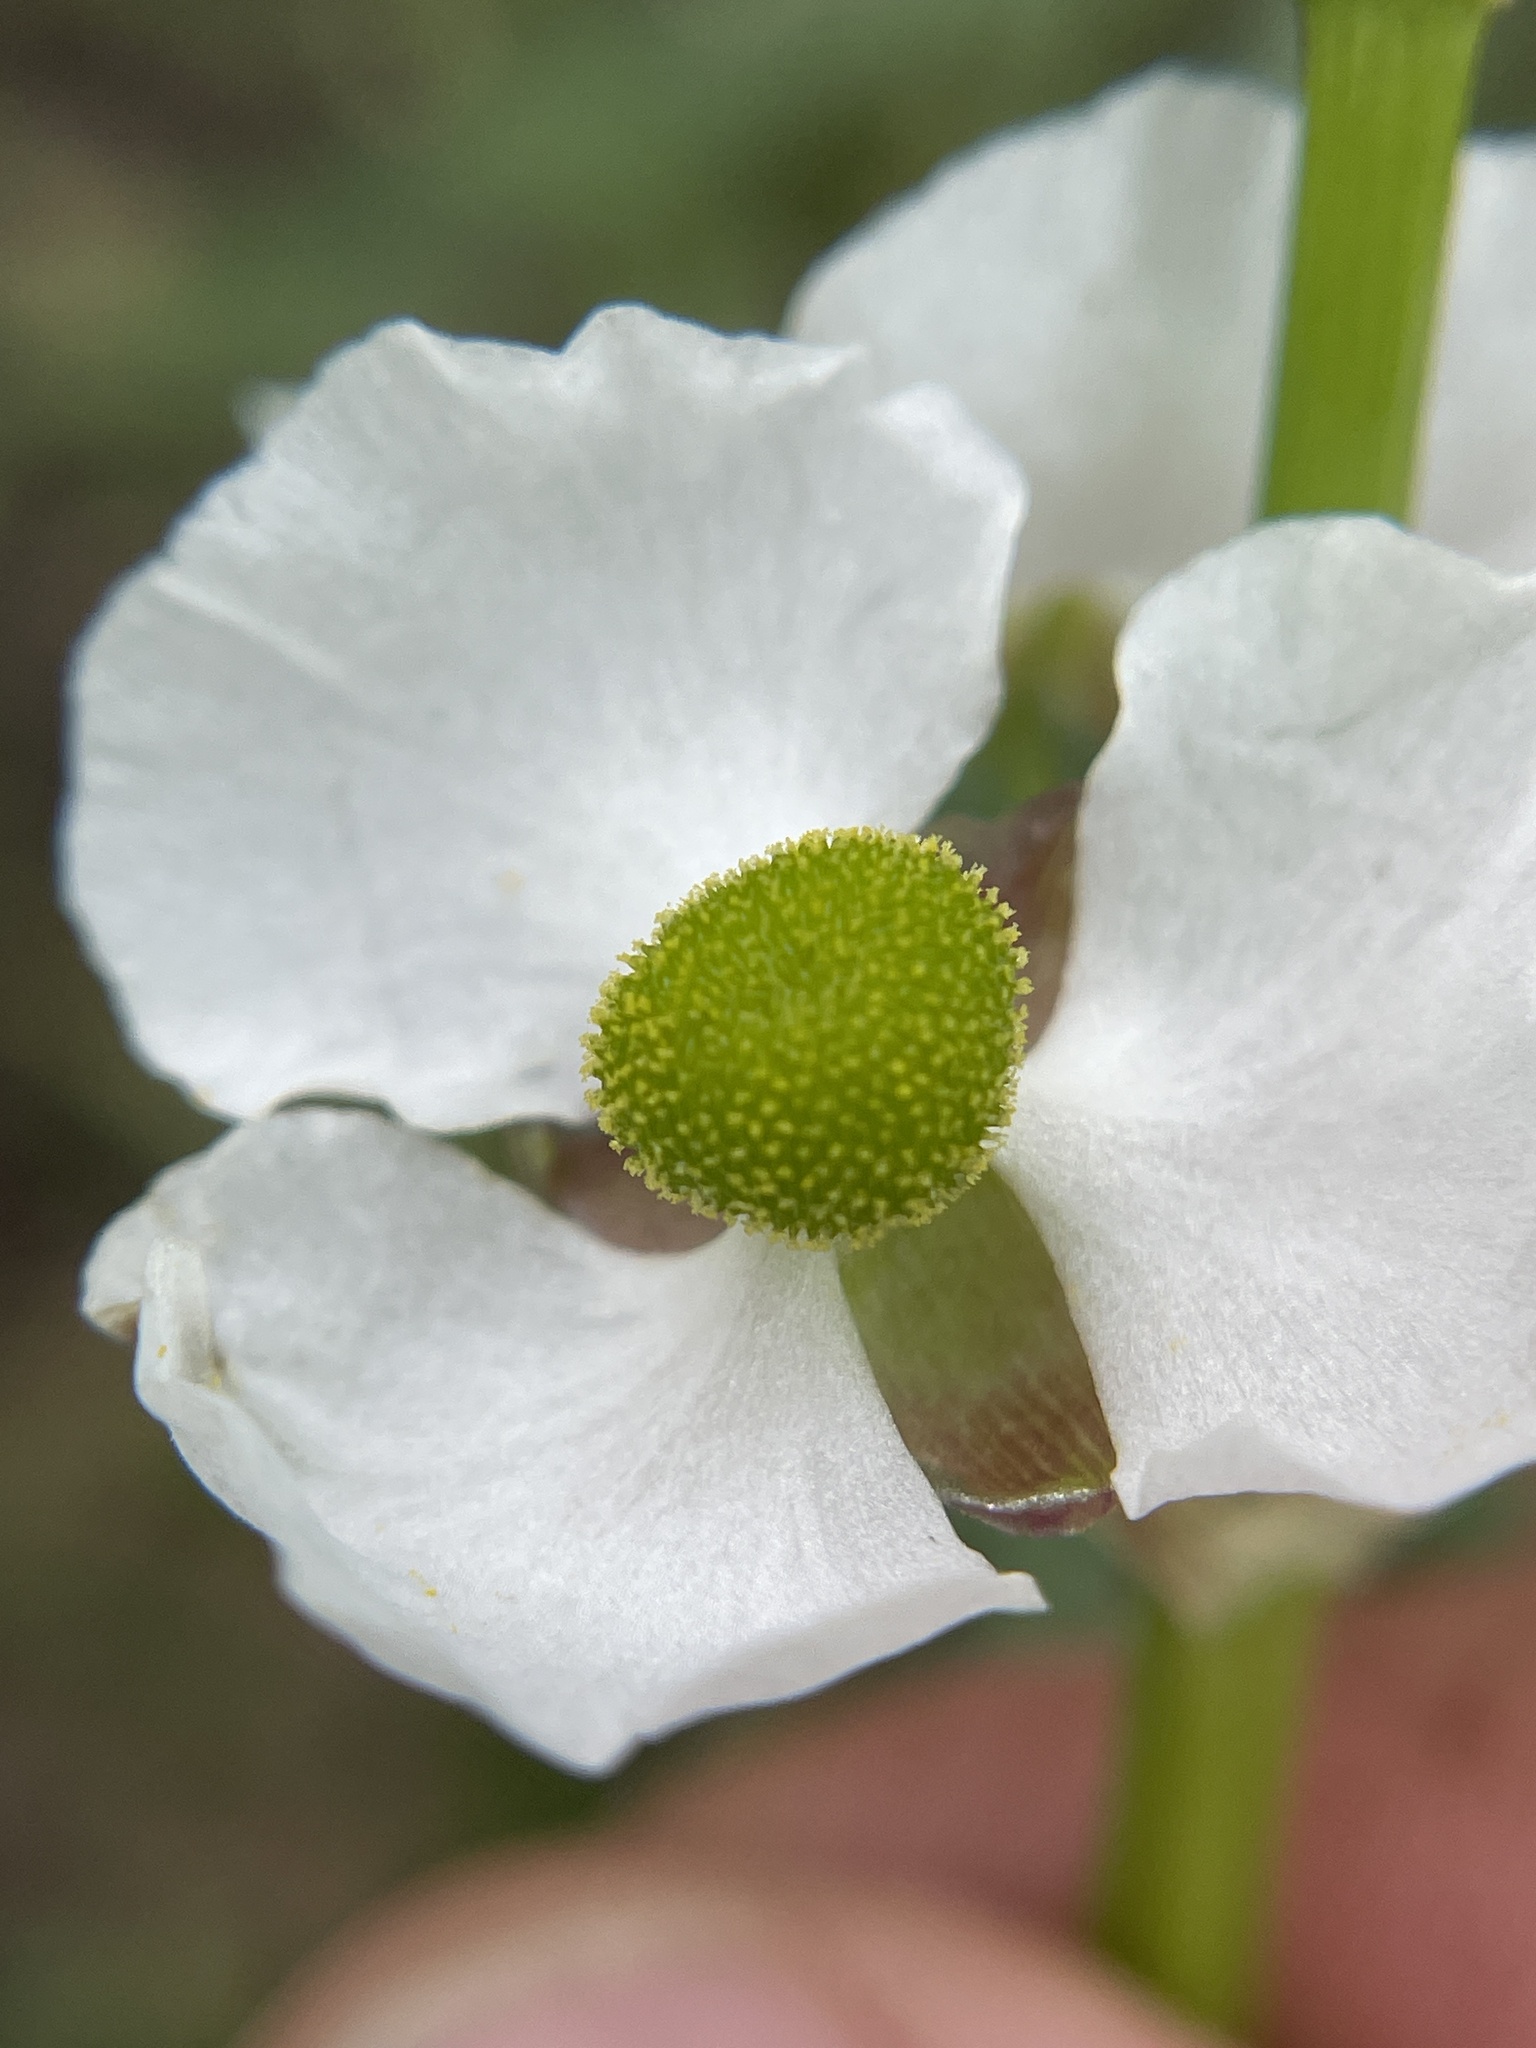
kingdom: Plantae
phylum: Tracheophyta
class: Liliopsida
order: Alismatales
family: Alismataceae
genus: Sagittaria
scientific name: Sagittaria longiloba
